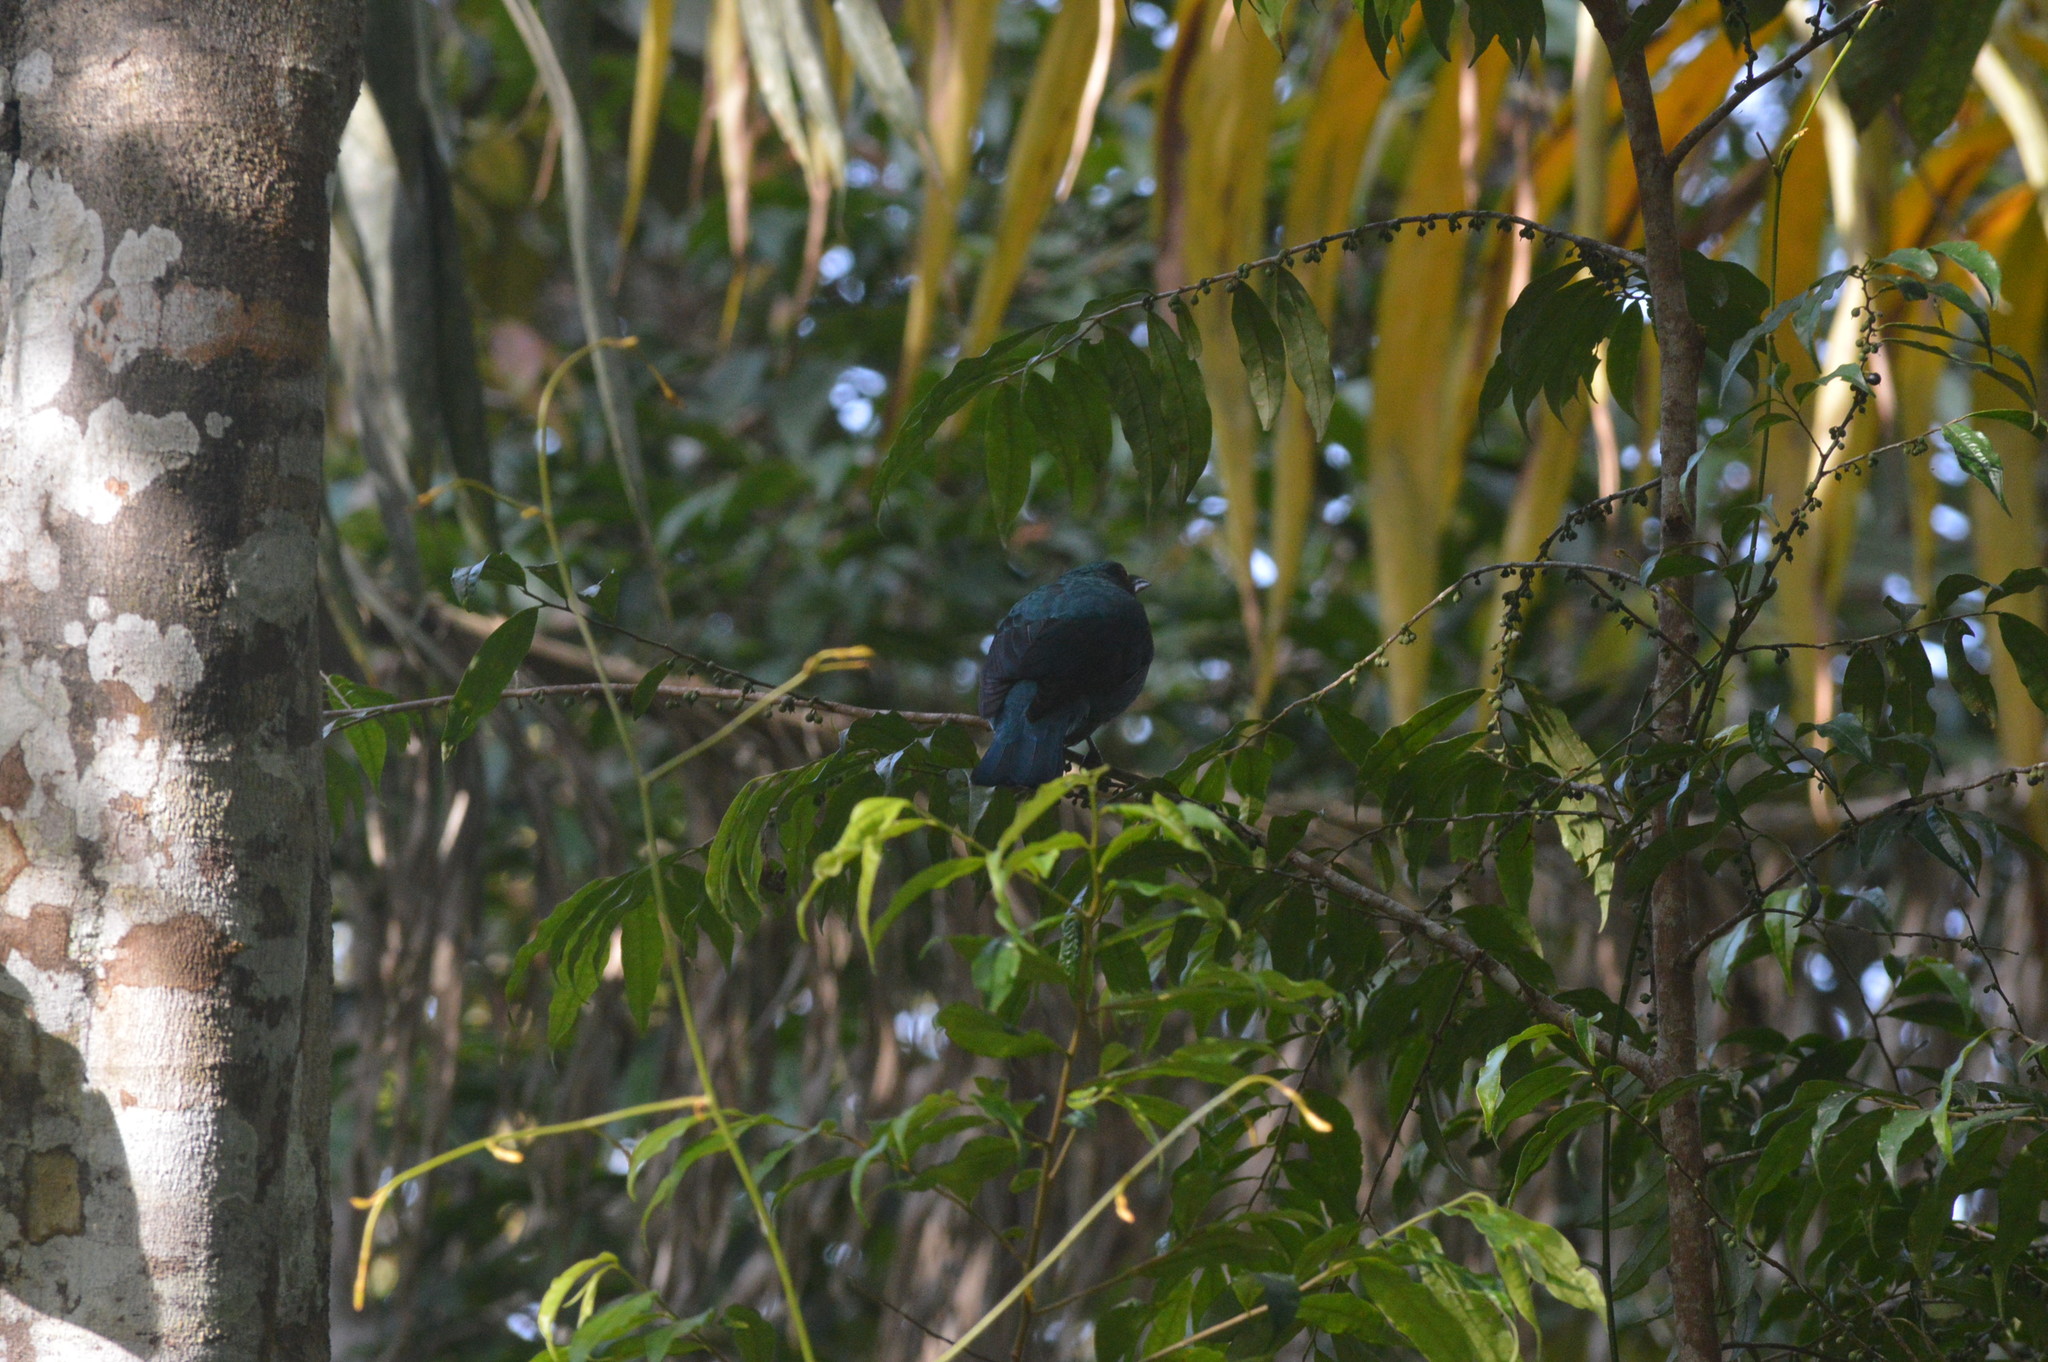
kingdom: Animalia
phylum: Chordata
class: Aves
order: Passeriformes
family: Irenidae
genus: Irena
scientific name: Irena puella
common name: Asian fairy-bluebird
